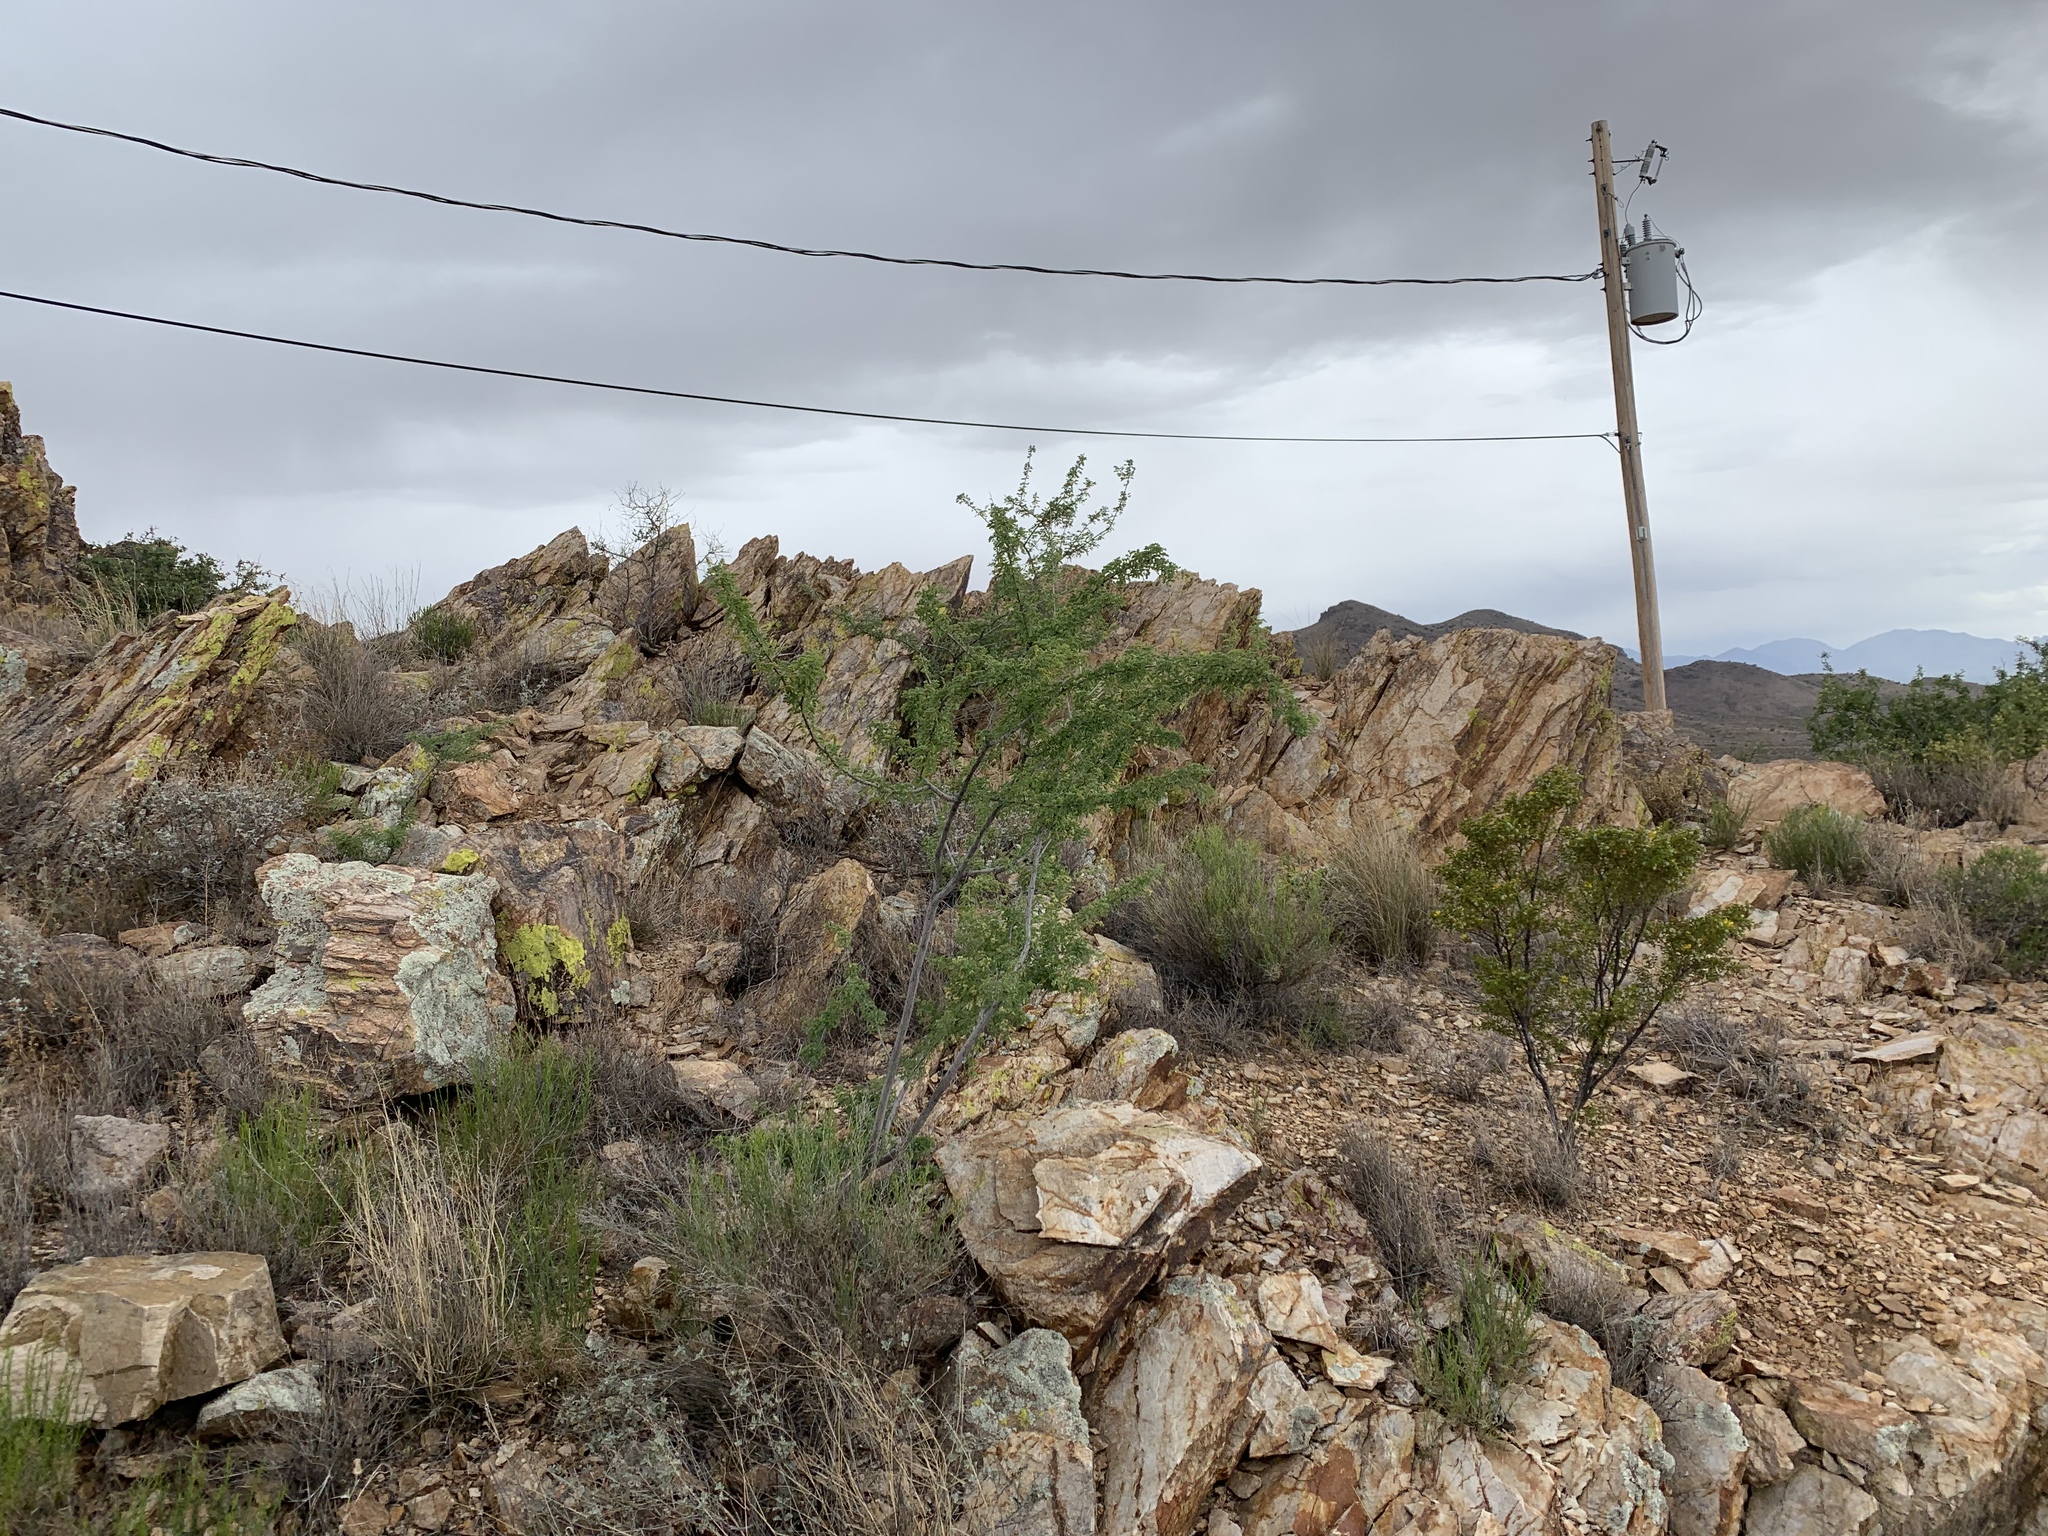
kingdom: Plantae
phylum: Tracheophyta
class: Magnoliopsida
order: Fabales
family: Fabaceae
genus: Senegalia
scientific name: Senegalia greggii
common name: Texas-mimosa
